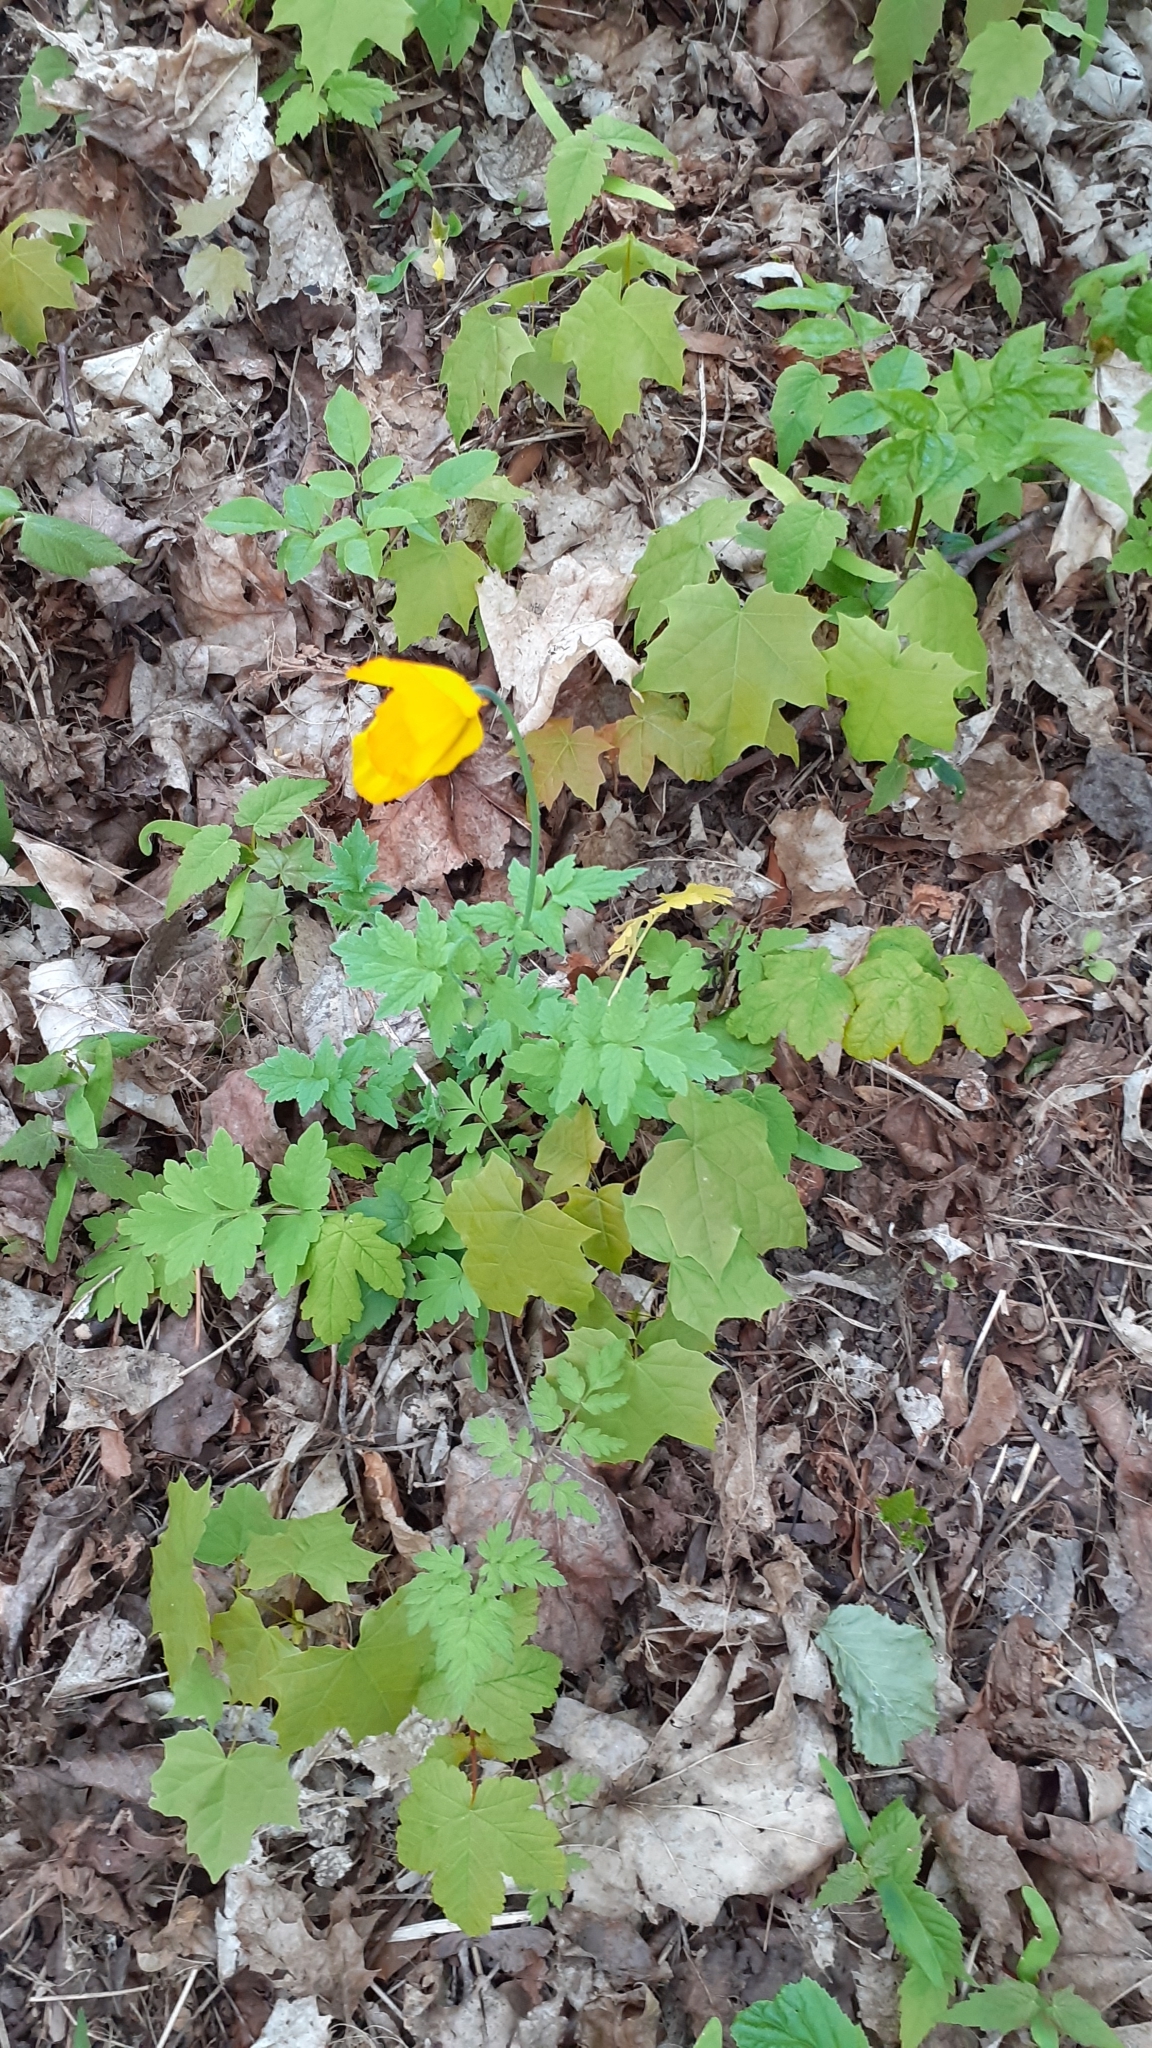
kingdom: Plantae
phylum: Tracheophyta
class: Magnoliopsida
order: Ranunculales
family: Papaveraceae
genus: Papaver
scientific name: Papaver cambricum
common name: Poppy
